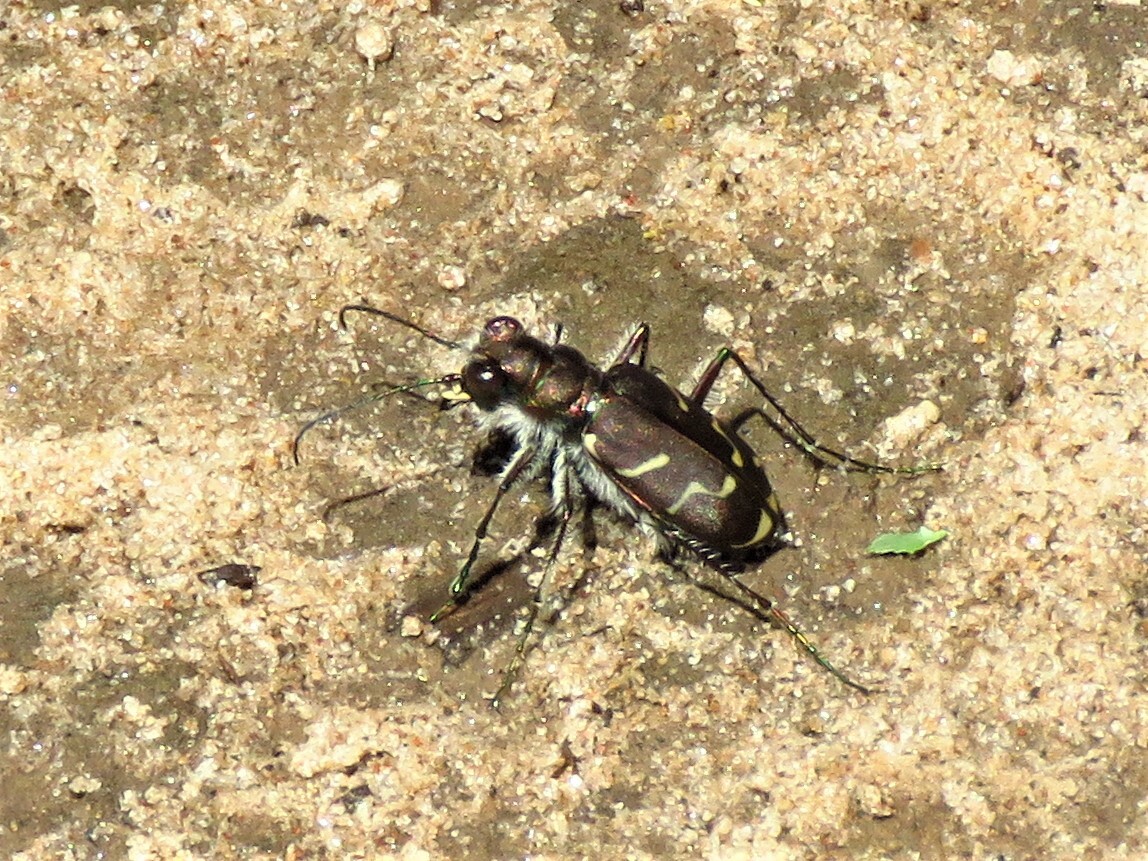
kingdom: Animalia
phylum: Arthropoda
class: Insecta
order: Coleoptera
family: Carabidae
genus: Cicindela
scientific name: Cicindela tranquebarica
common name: Oblique-lined tiger beetle
